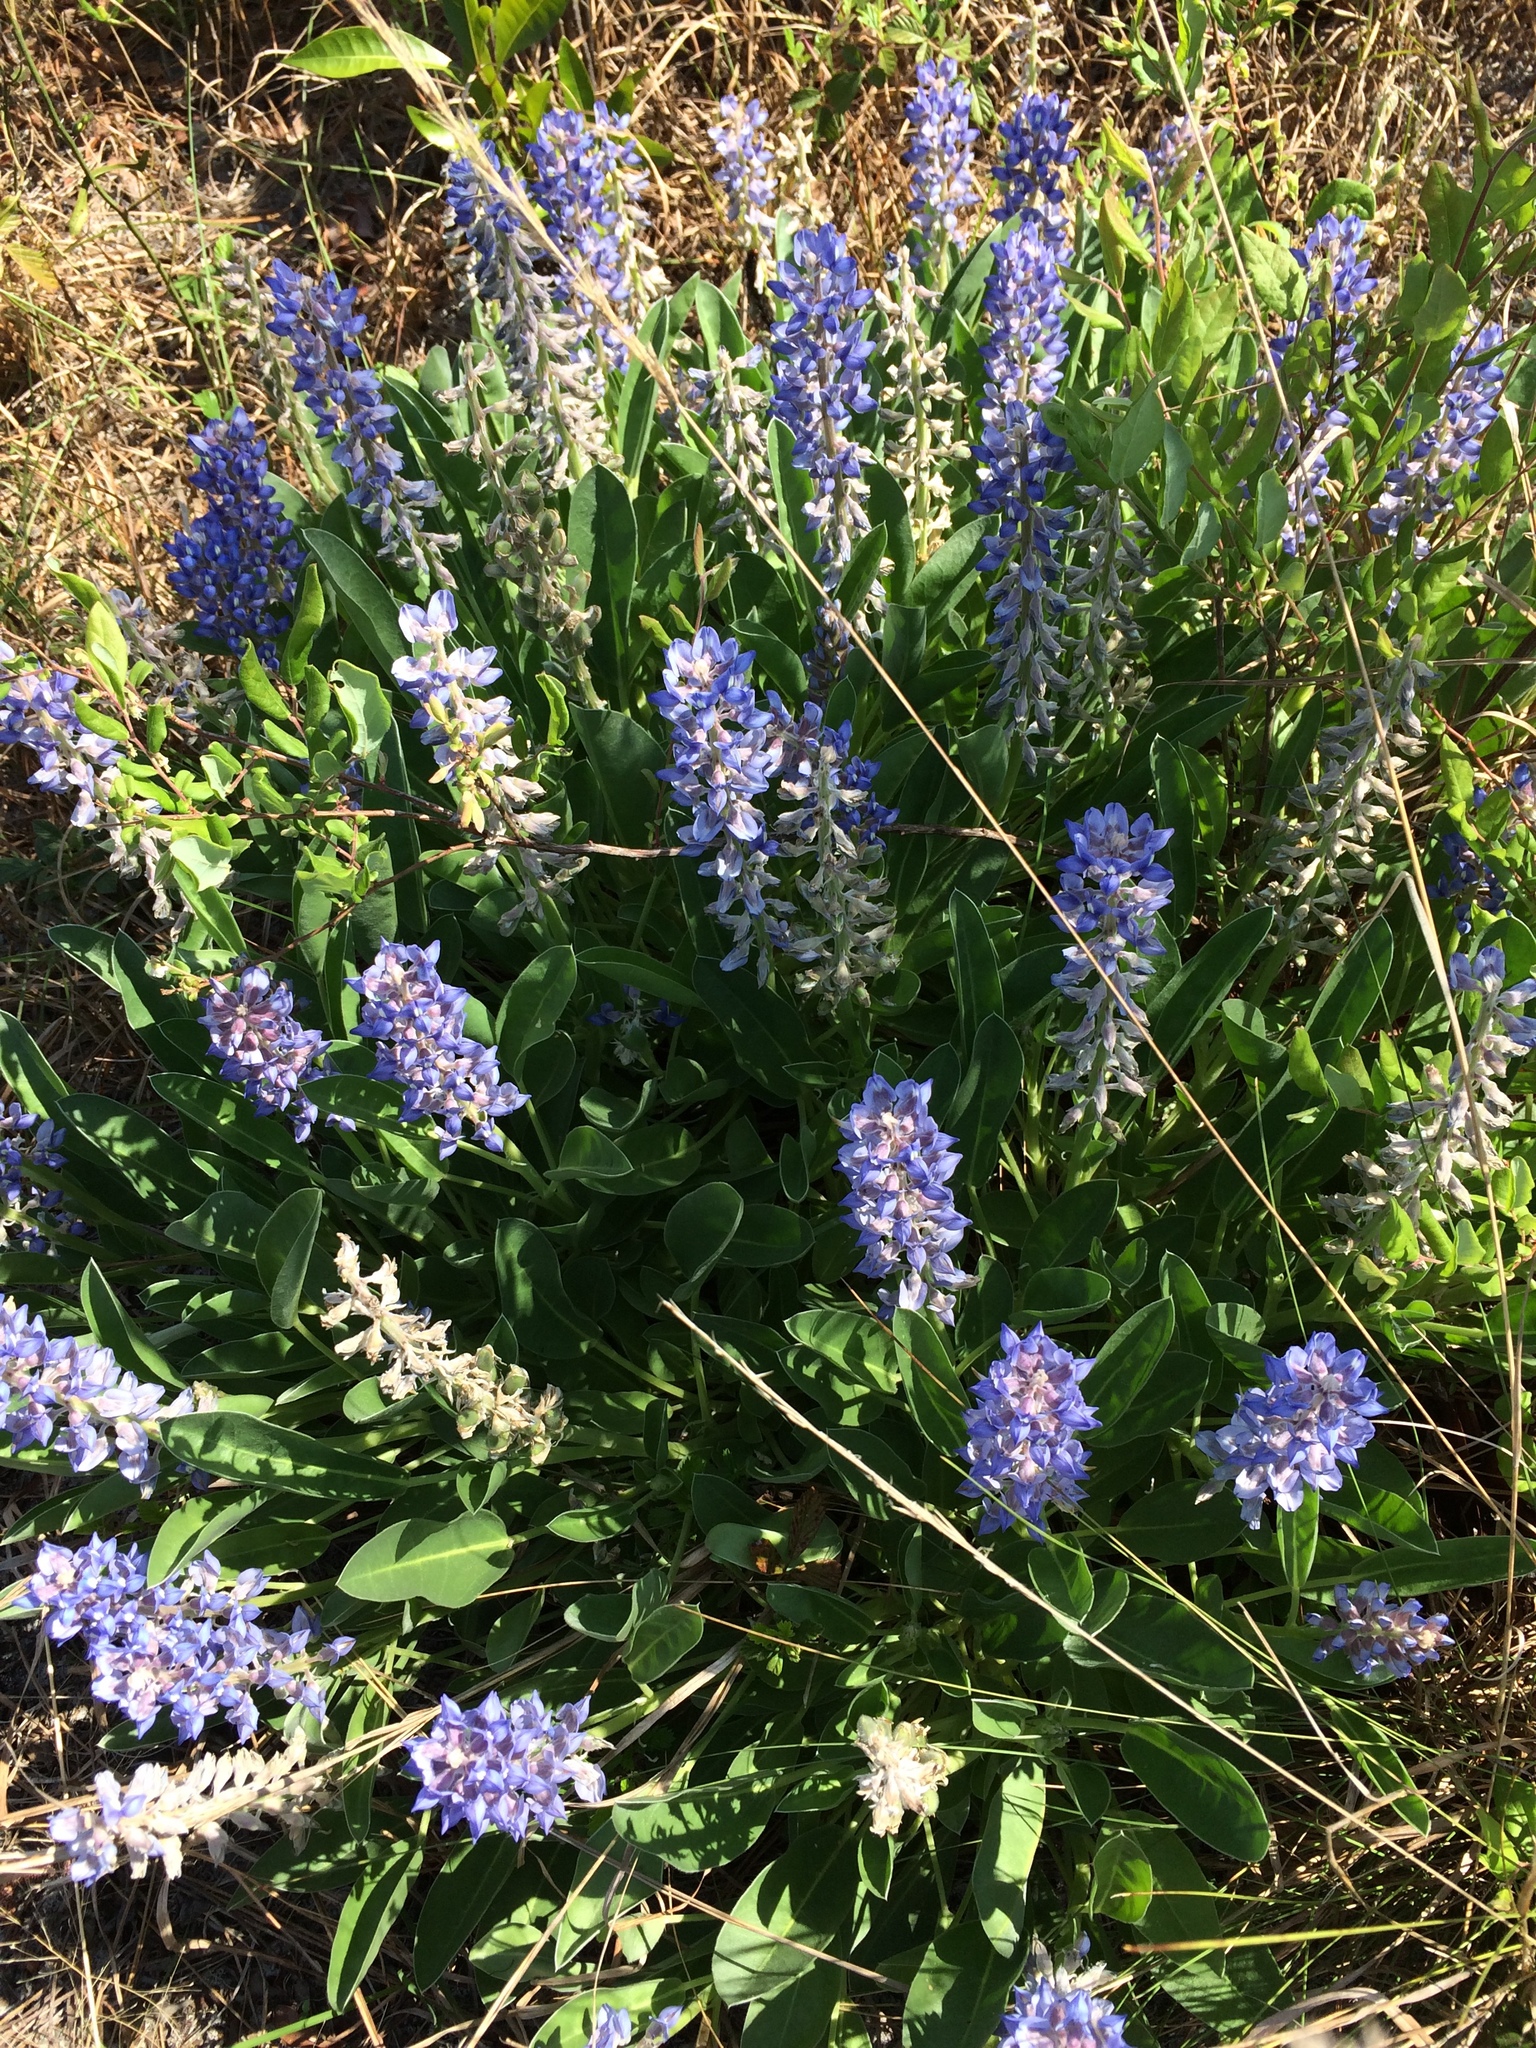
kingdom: Plantae
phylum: Tracheophyta
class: Magnoliopsida
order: Fabales
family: Fabaceae
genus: Lupinus
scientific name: Lupinus
